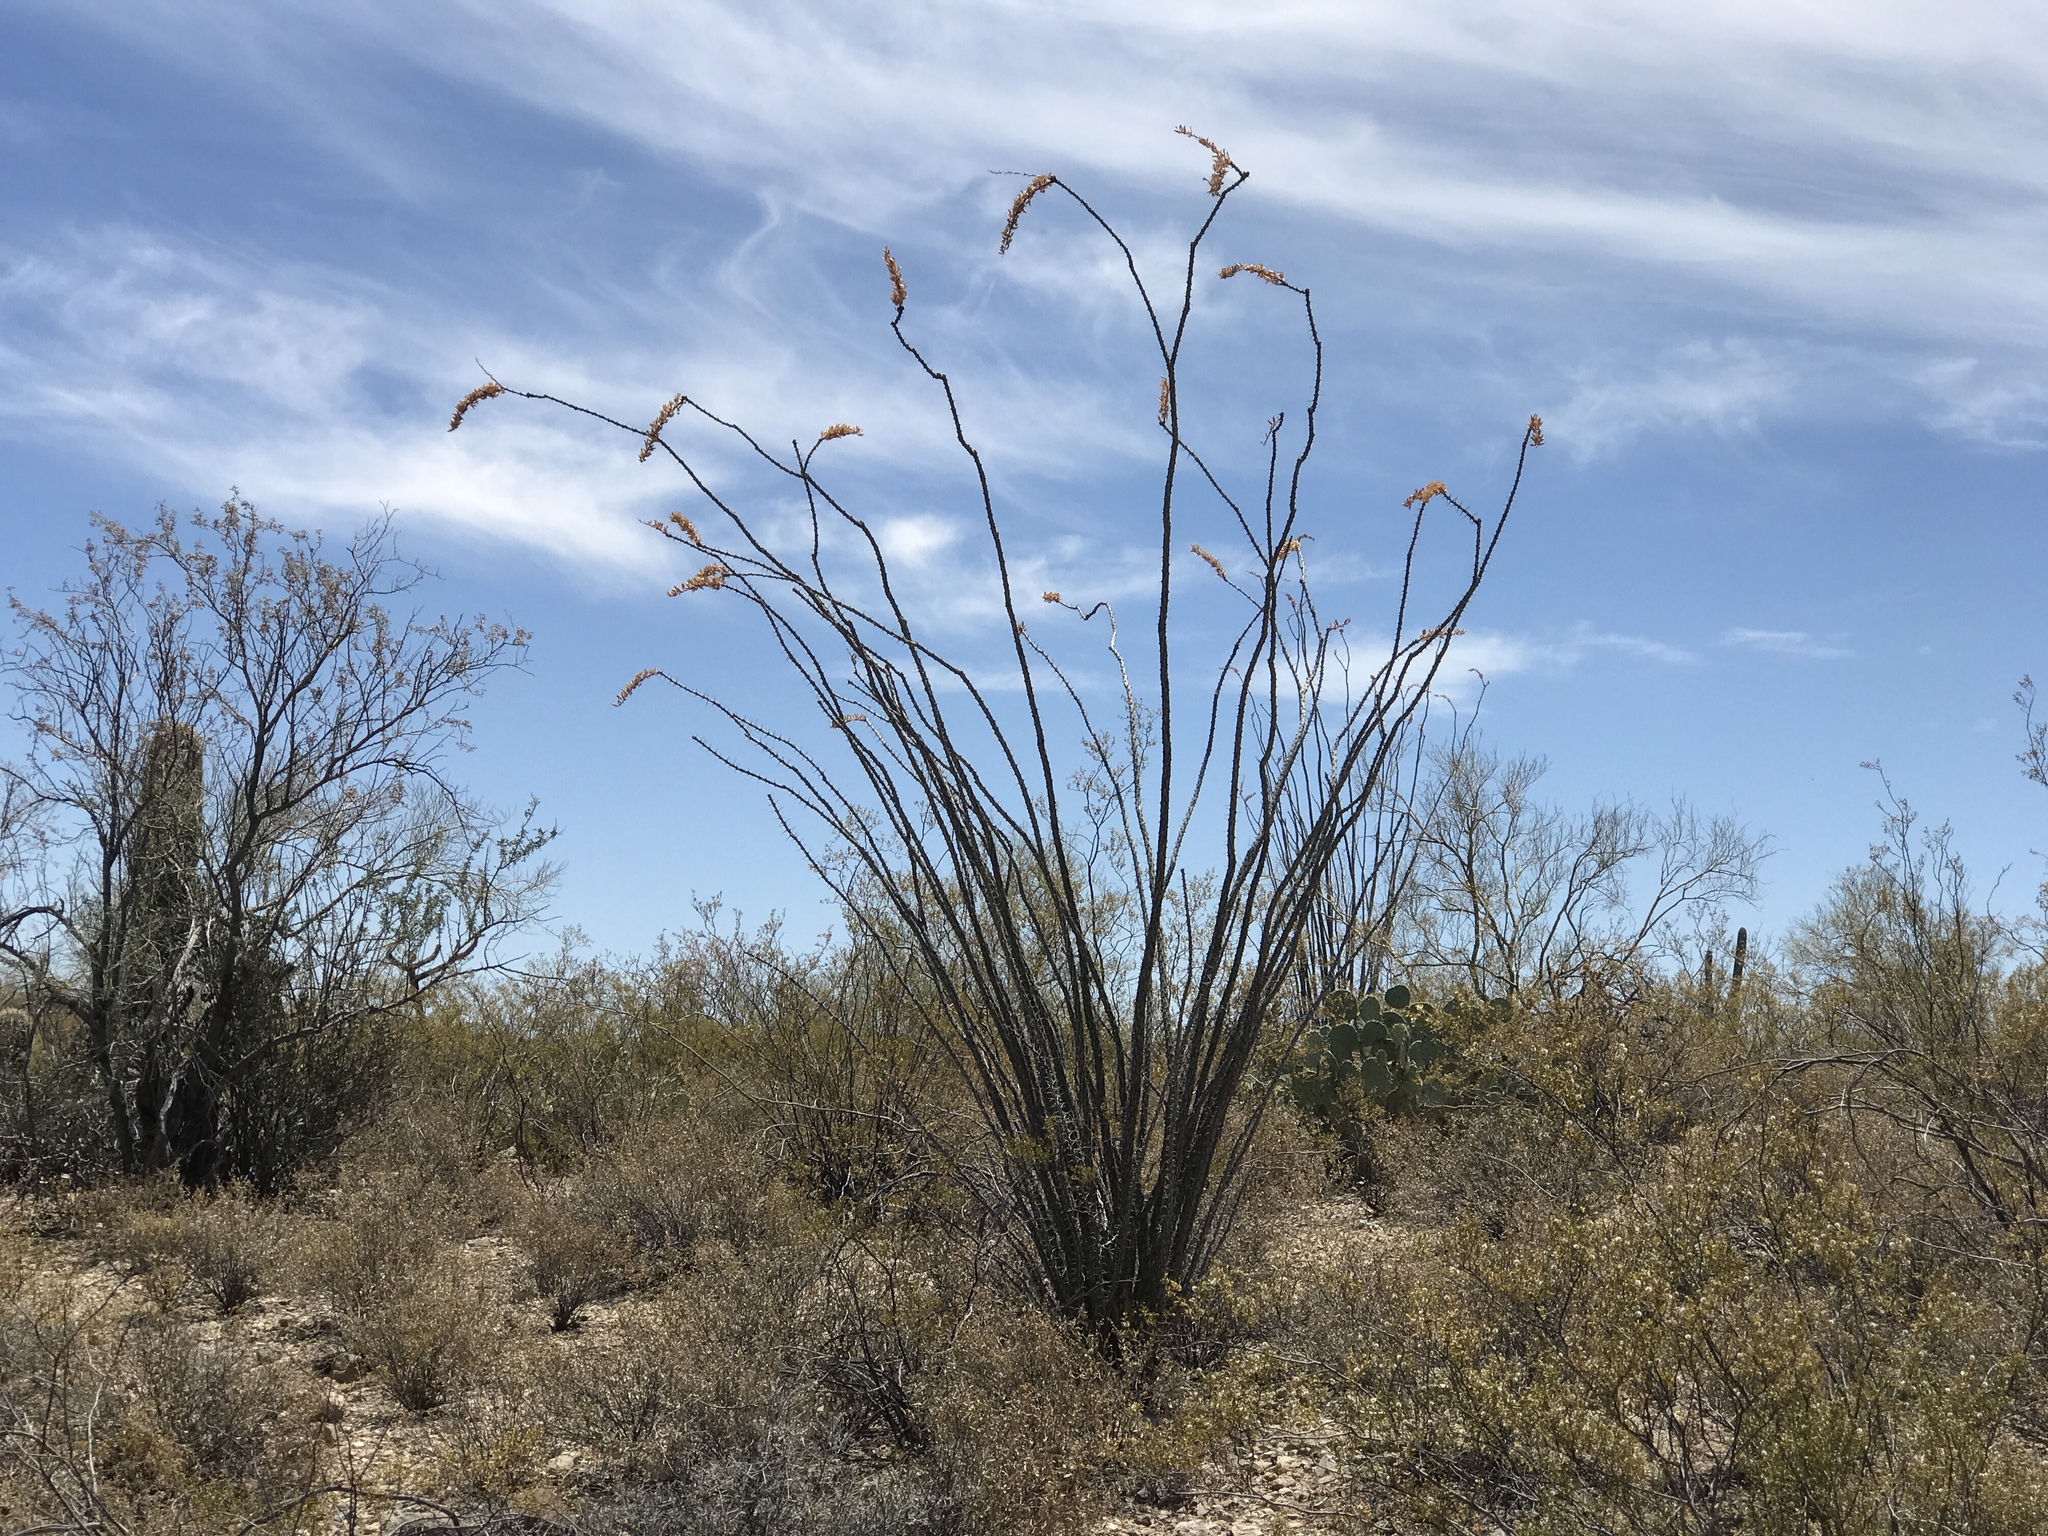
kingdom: Plantae
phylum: Tracheophyta
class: Magnoliopsida
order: Ericales
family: Fouquieriaceae
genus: Fouquieria
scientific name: Fouquieria splendens
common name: Vine-cactus
